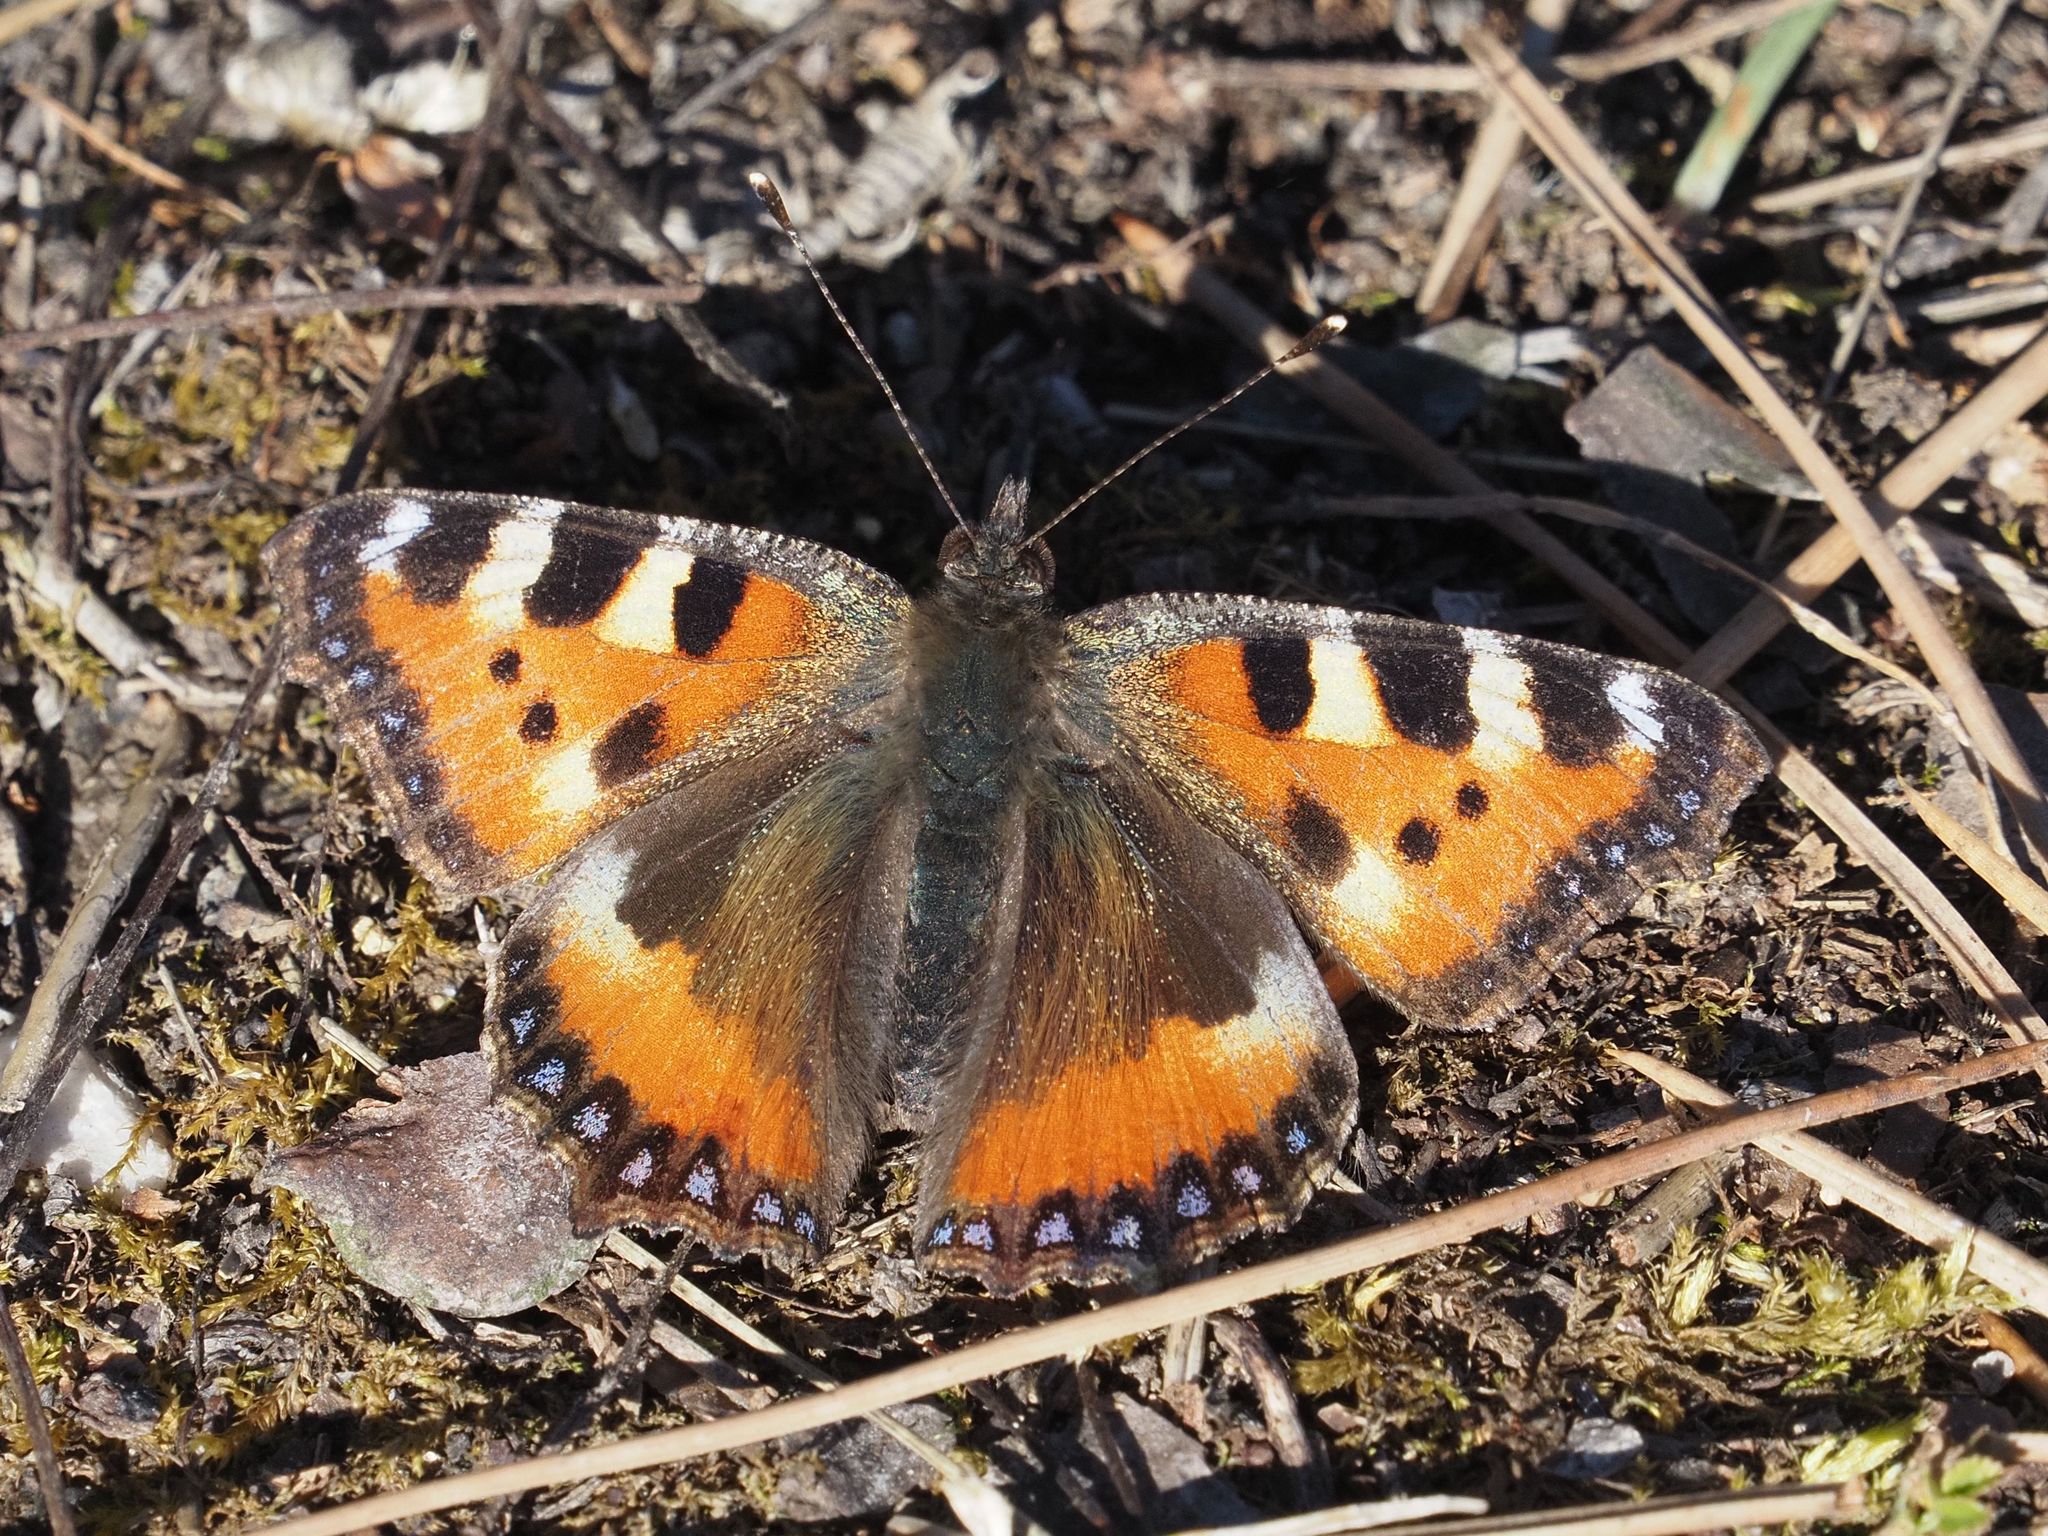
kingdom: Animalia
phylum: Arthropoda
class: Insecta
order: Lepidoptera
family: Nymphalidae
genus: Aglais
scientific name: Aglais urticae
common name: Small tortoiseshell
